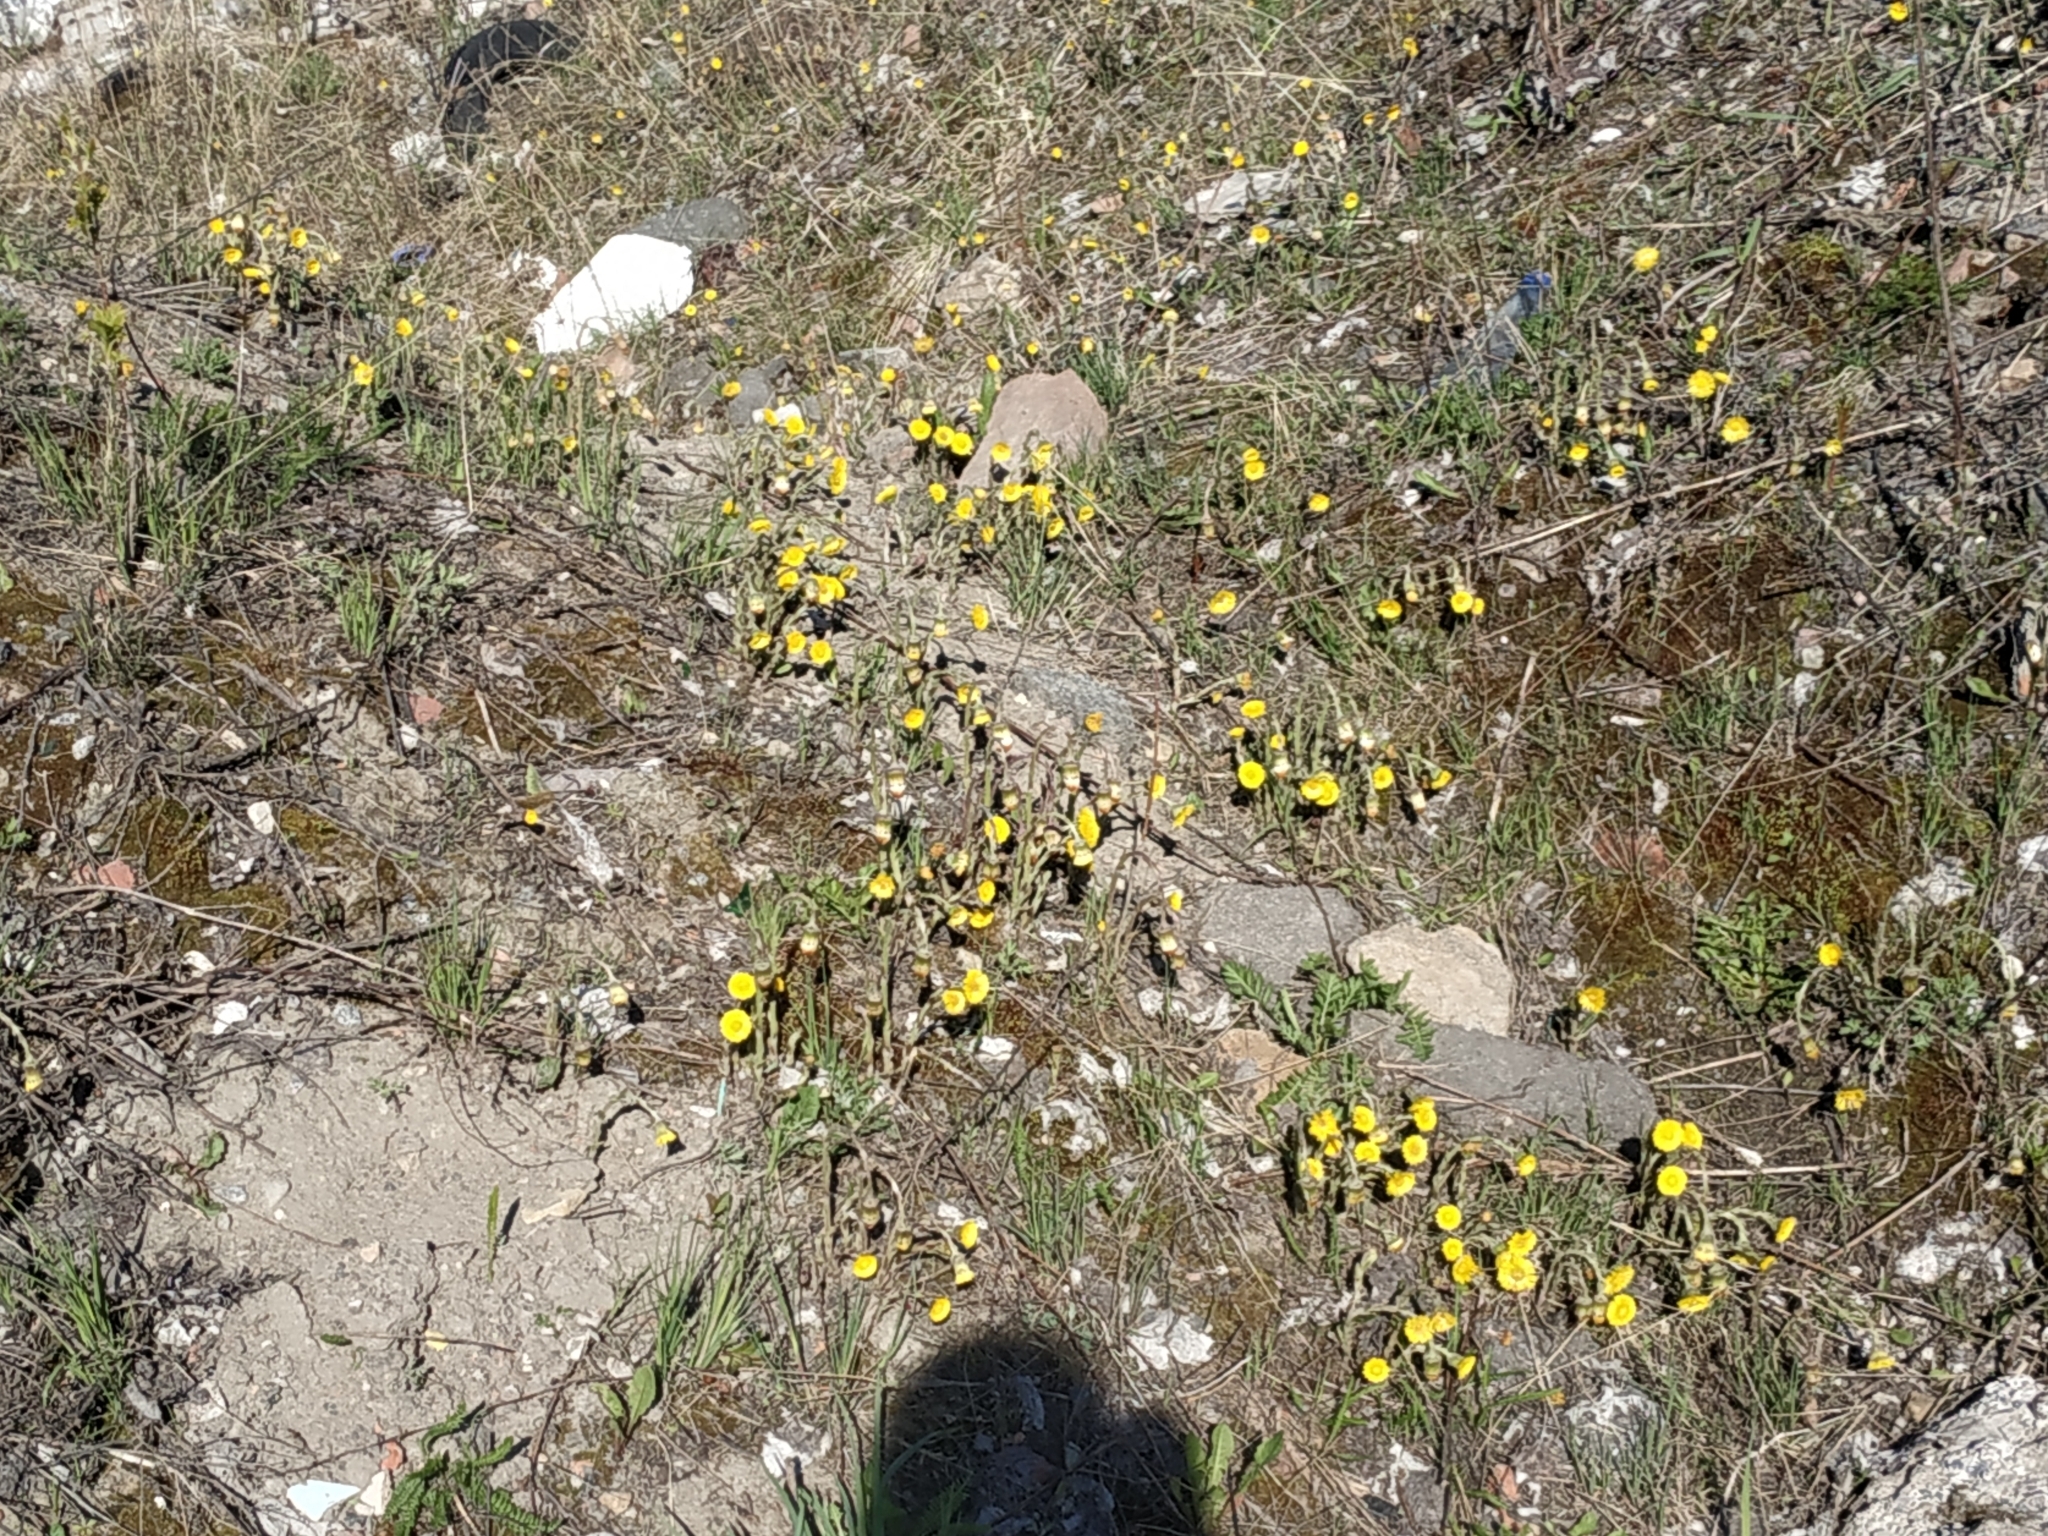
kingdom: Plantae
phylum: Tracheophyta
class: Magnoliopsida
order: Asterales
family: Asteraceae
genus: Tussilago
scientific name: Tussilago farfara
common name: Coltsfoot
